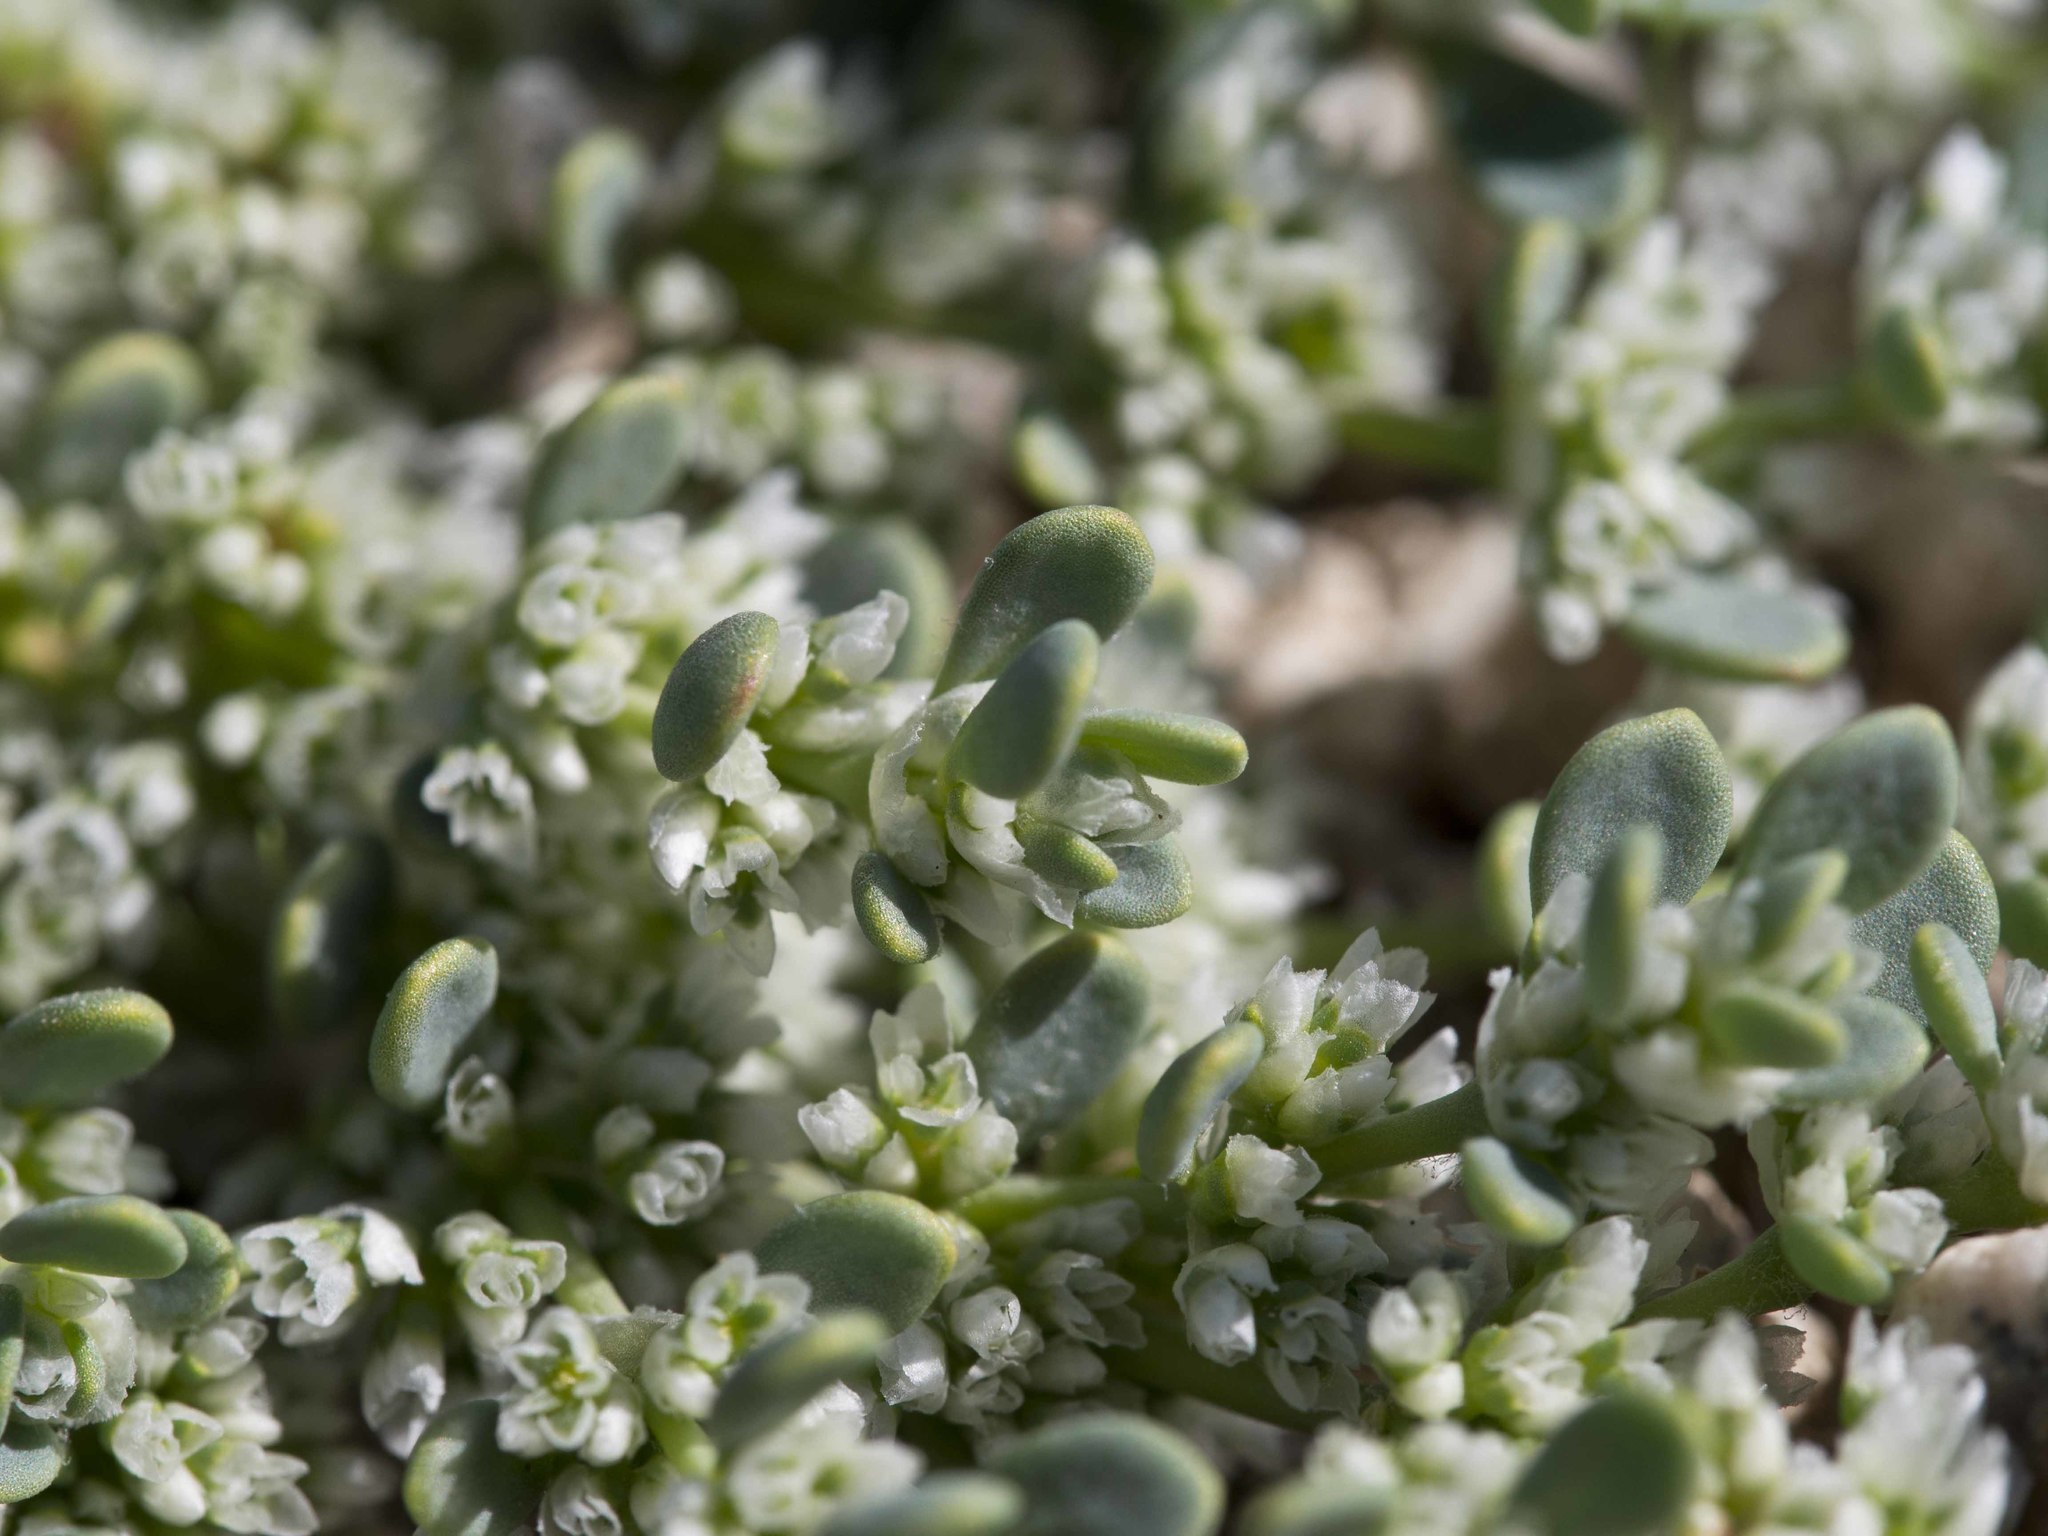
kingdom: Plantae
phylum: Tracheophyta
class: Magnoliopsida
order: Caryophyllales
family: Caryophyllaceae
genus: Achyronychia
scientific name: Achyronychia cooperi
